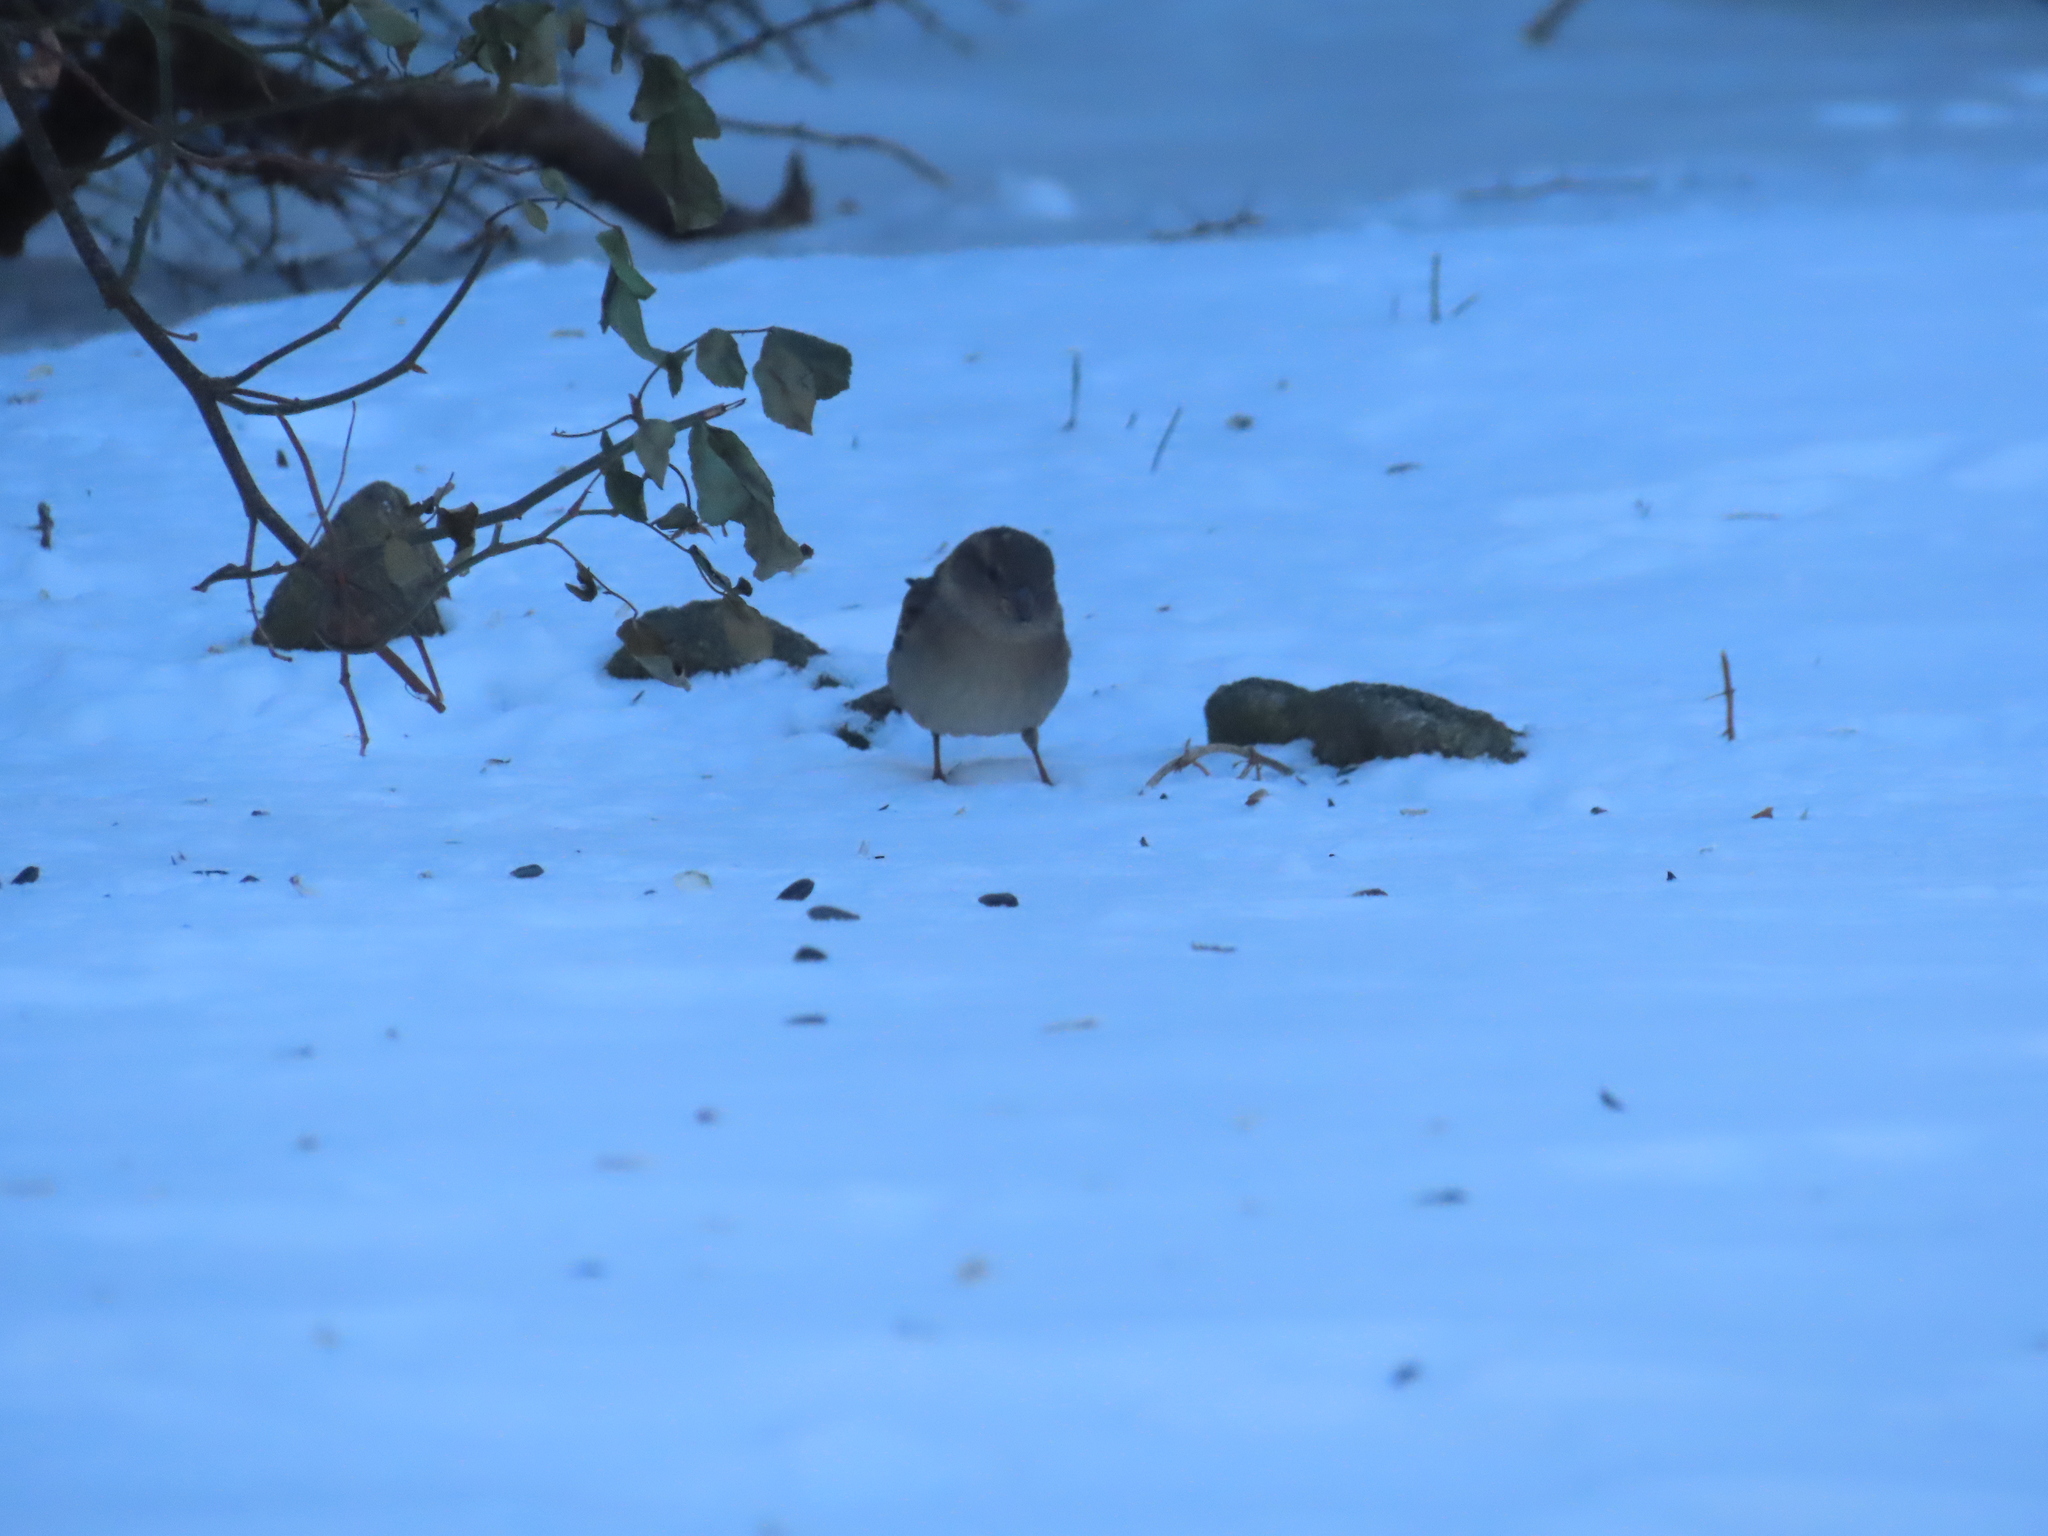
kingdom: Animalia
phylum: Chordata
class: Aves
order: Passeriformes
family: Passeridae
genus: Passer
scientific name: Passer domesticus
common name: House sparrow
